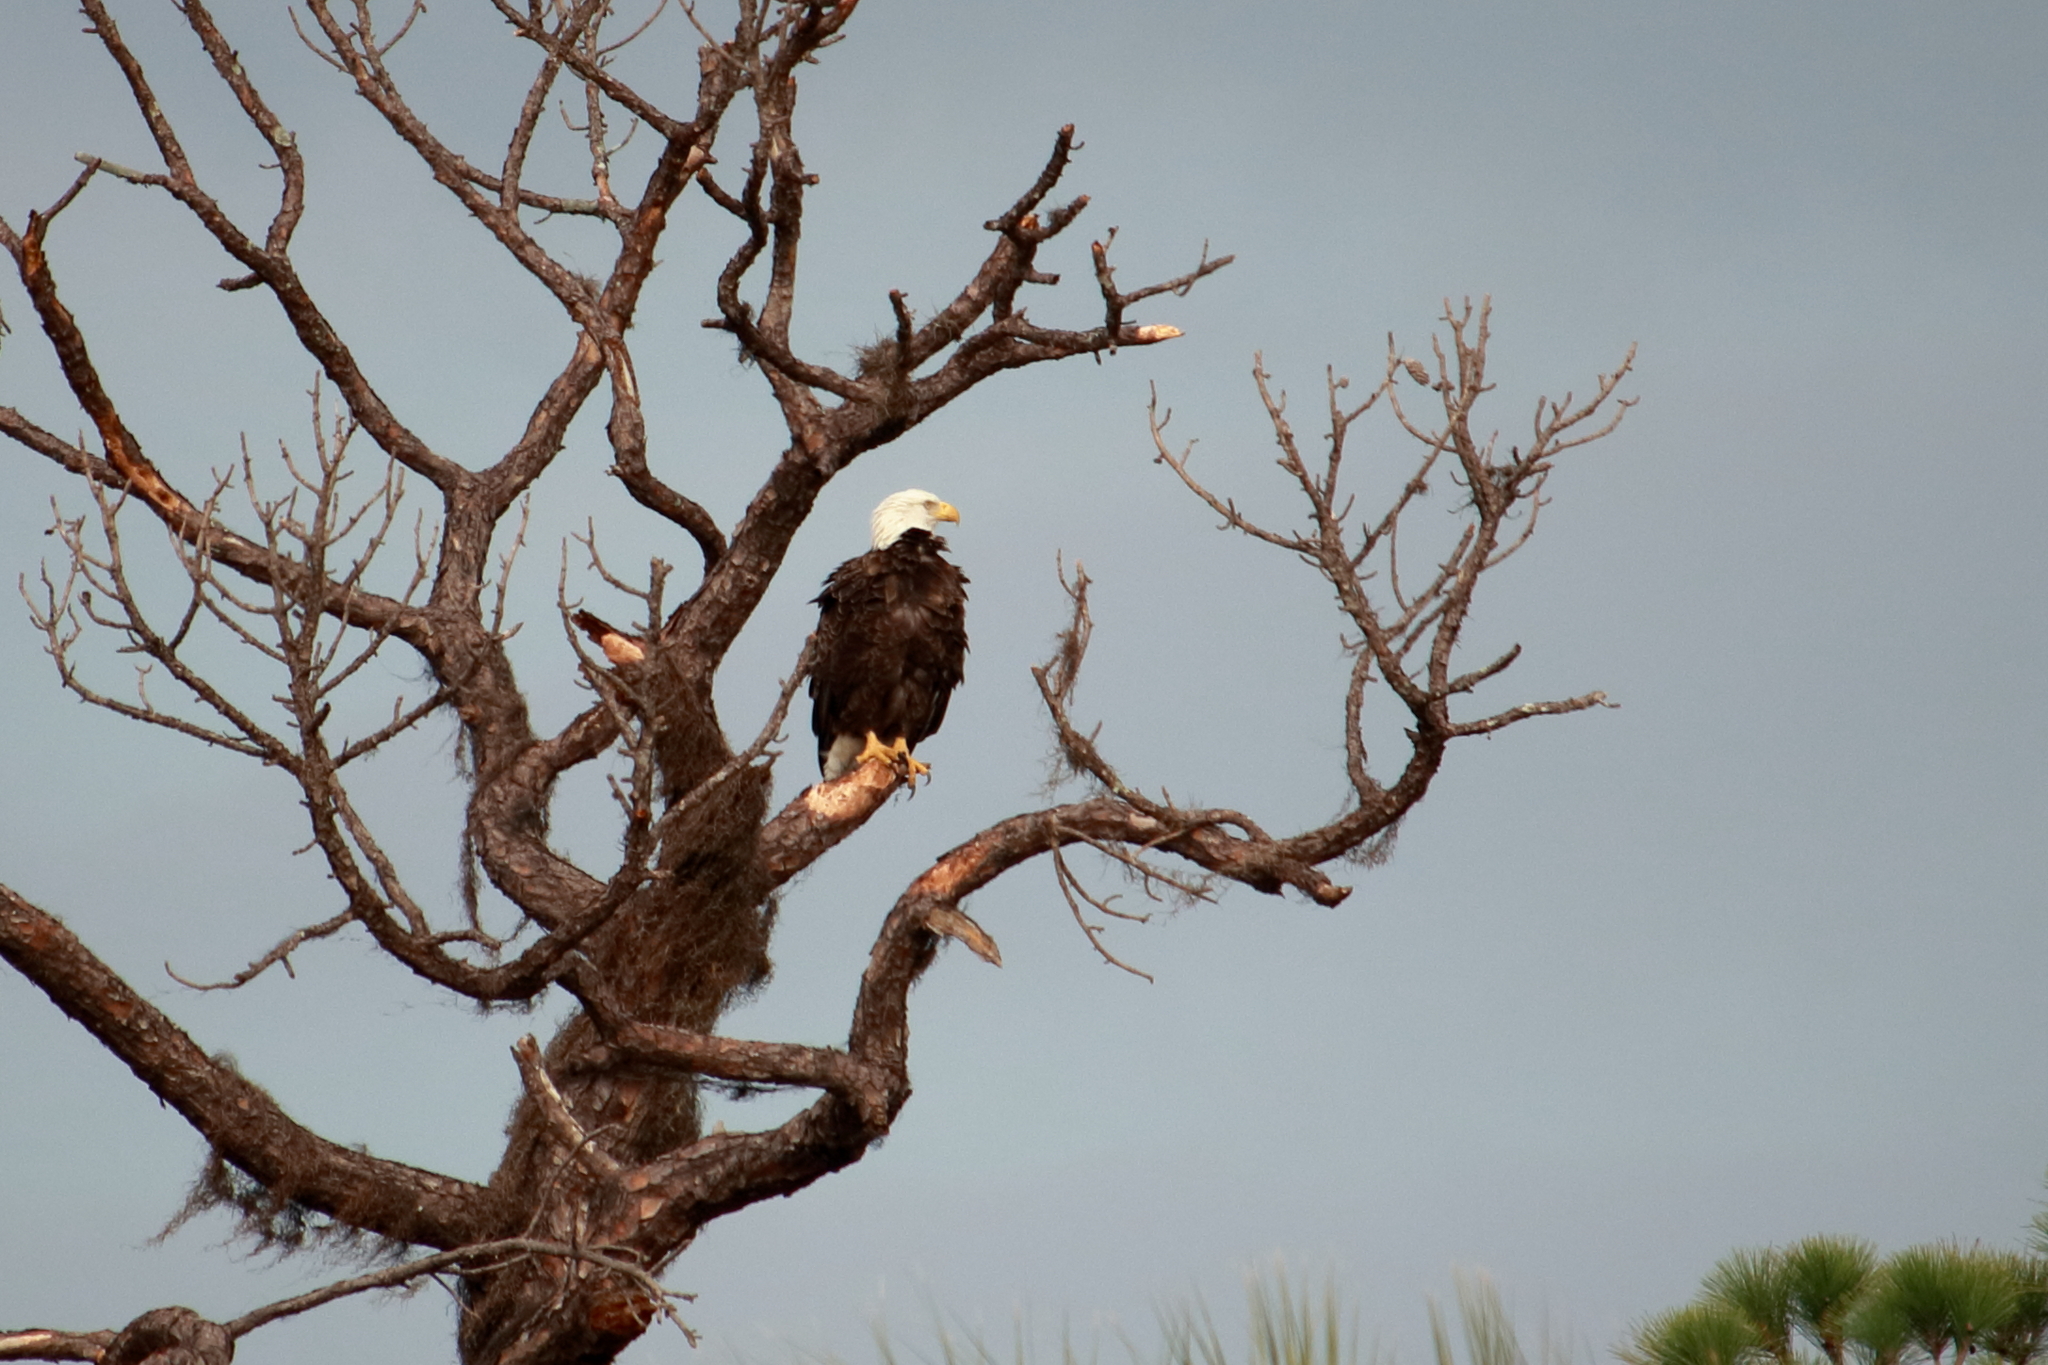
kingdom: Animalia
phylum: Chordata
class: Aves
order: Accipitriformes
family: Accipitridae
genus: Haliaeetus
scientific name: Haliaeetus leucocephalus
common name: Bald eagle
